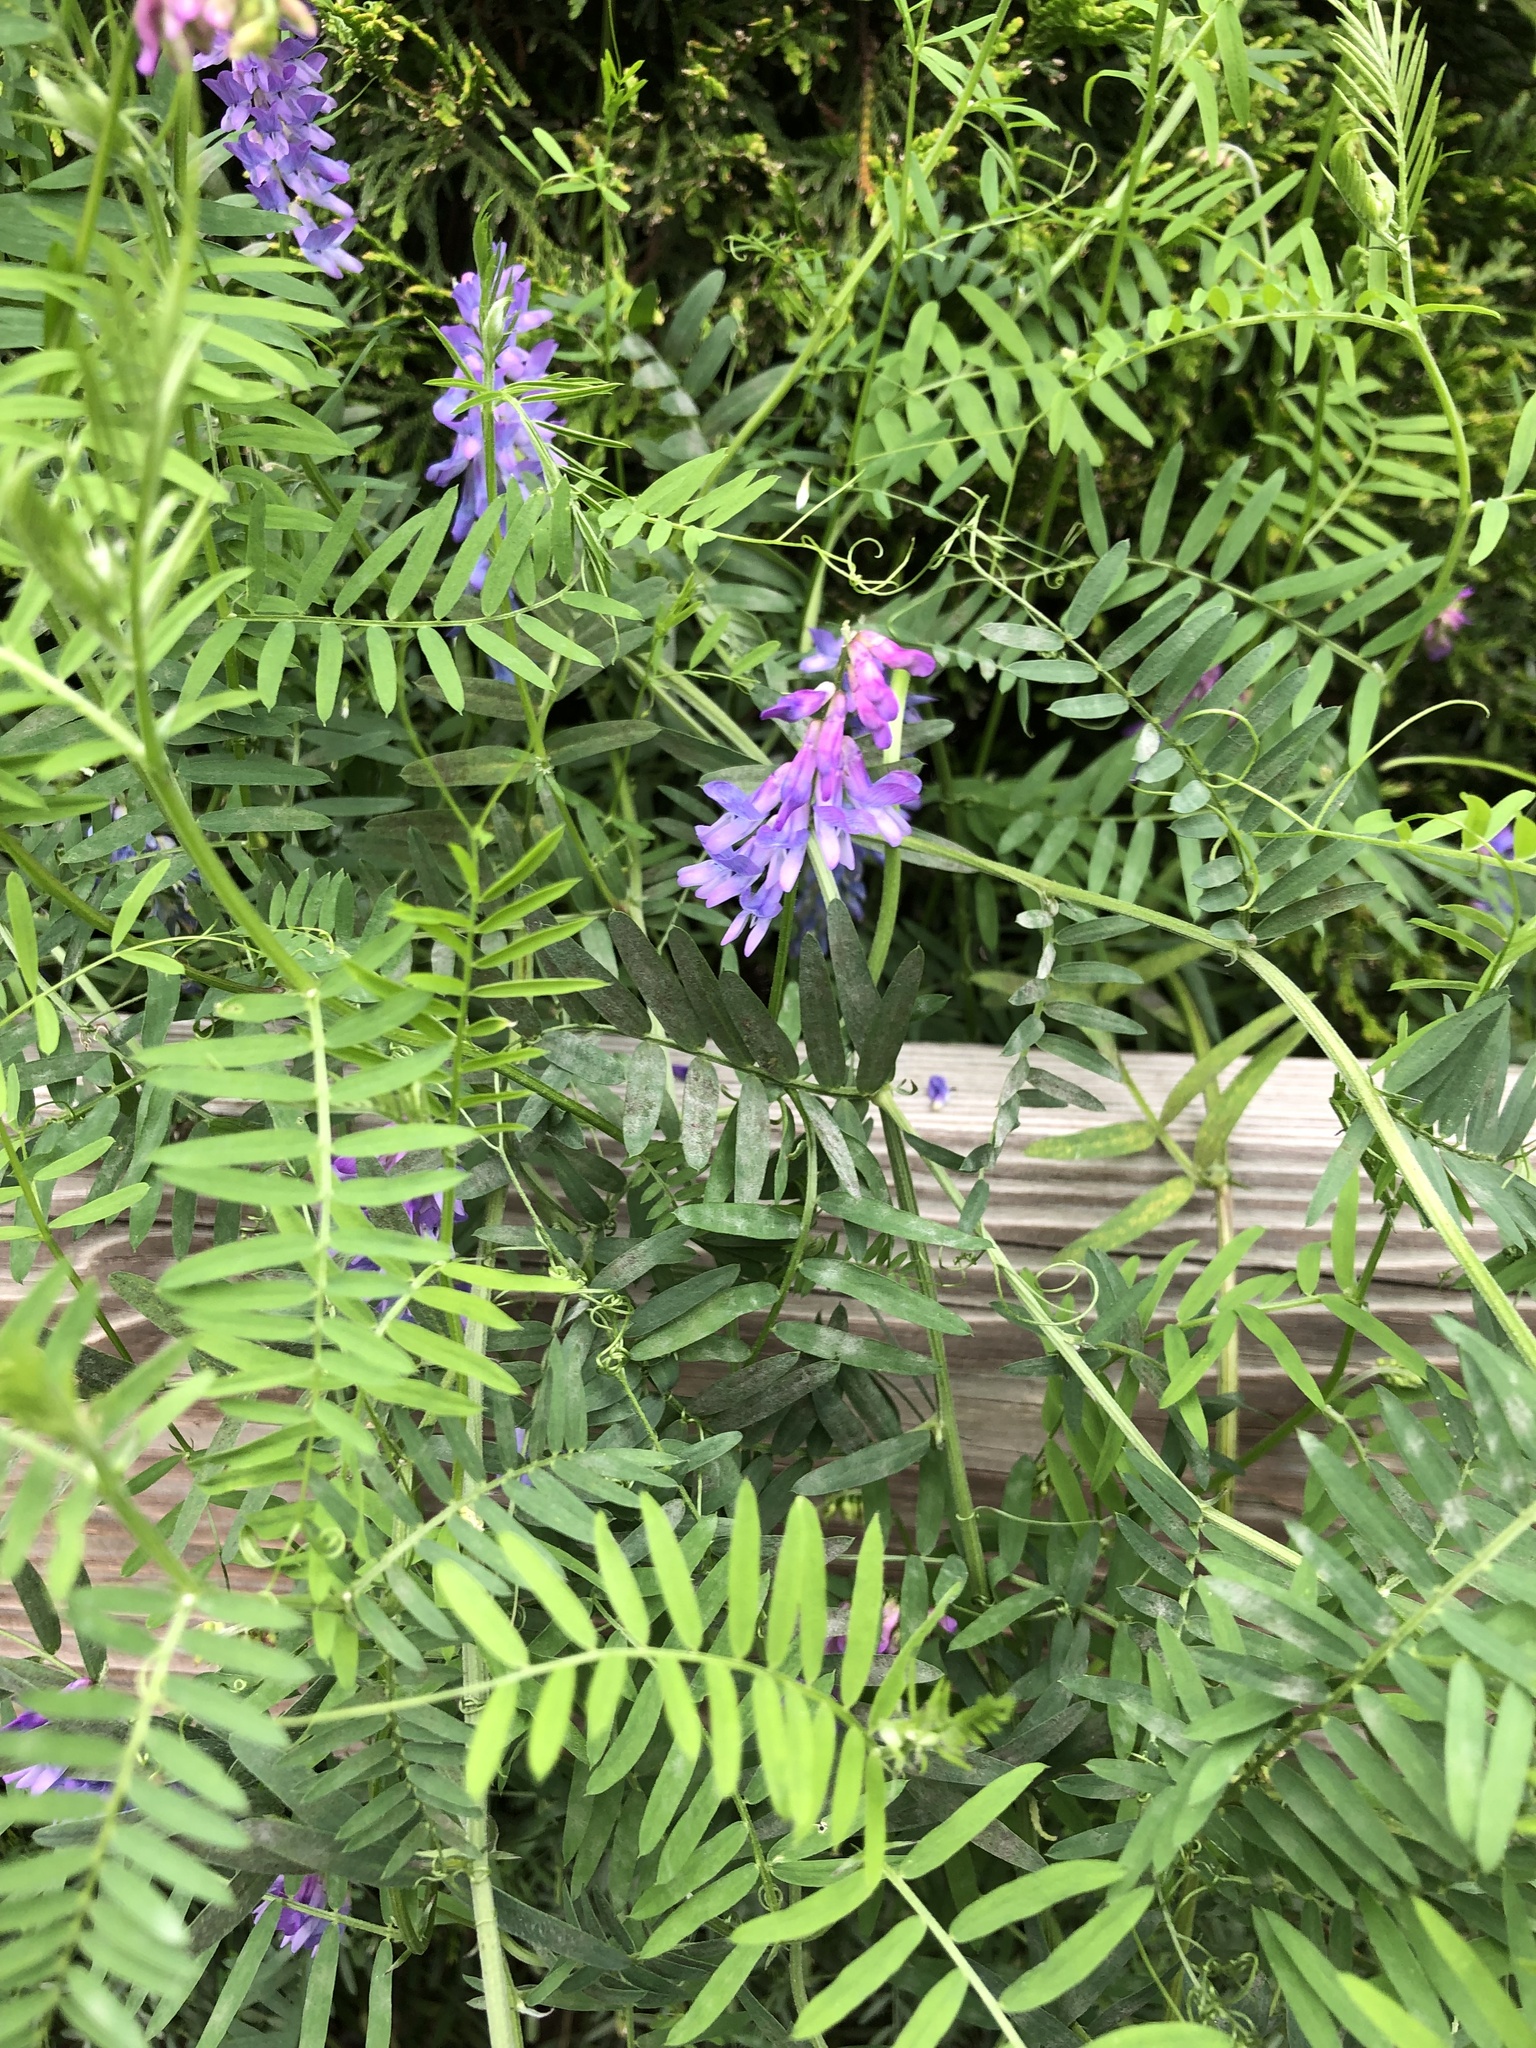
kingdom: Plantae
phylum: Tracheophyta
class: Magnoliopsida
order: Fabales
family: Fabaceae
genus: Vicia
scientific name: Vicia cracca
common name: Bird vetch
